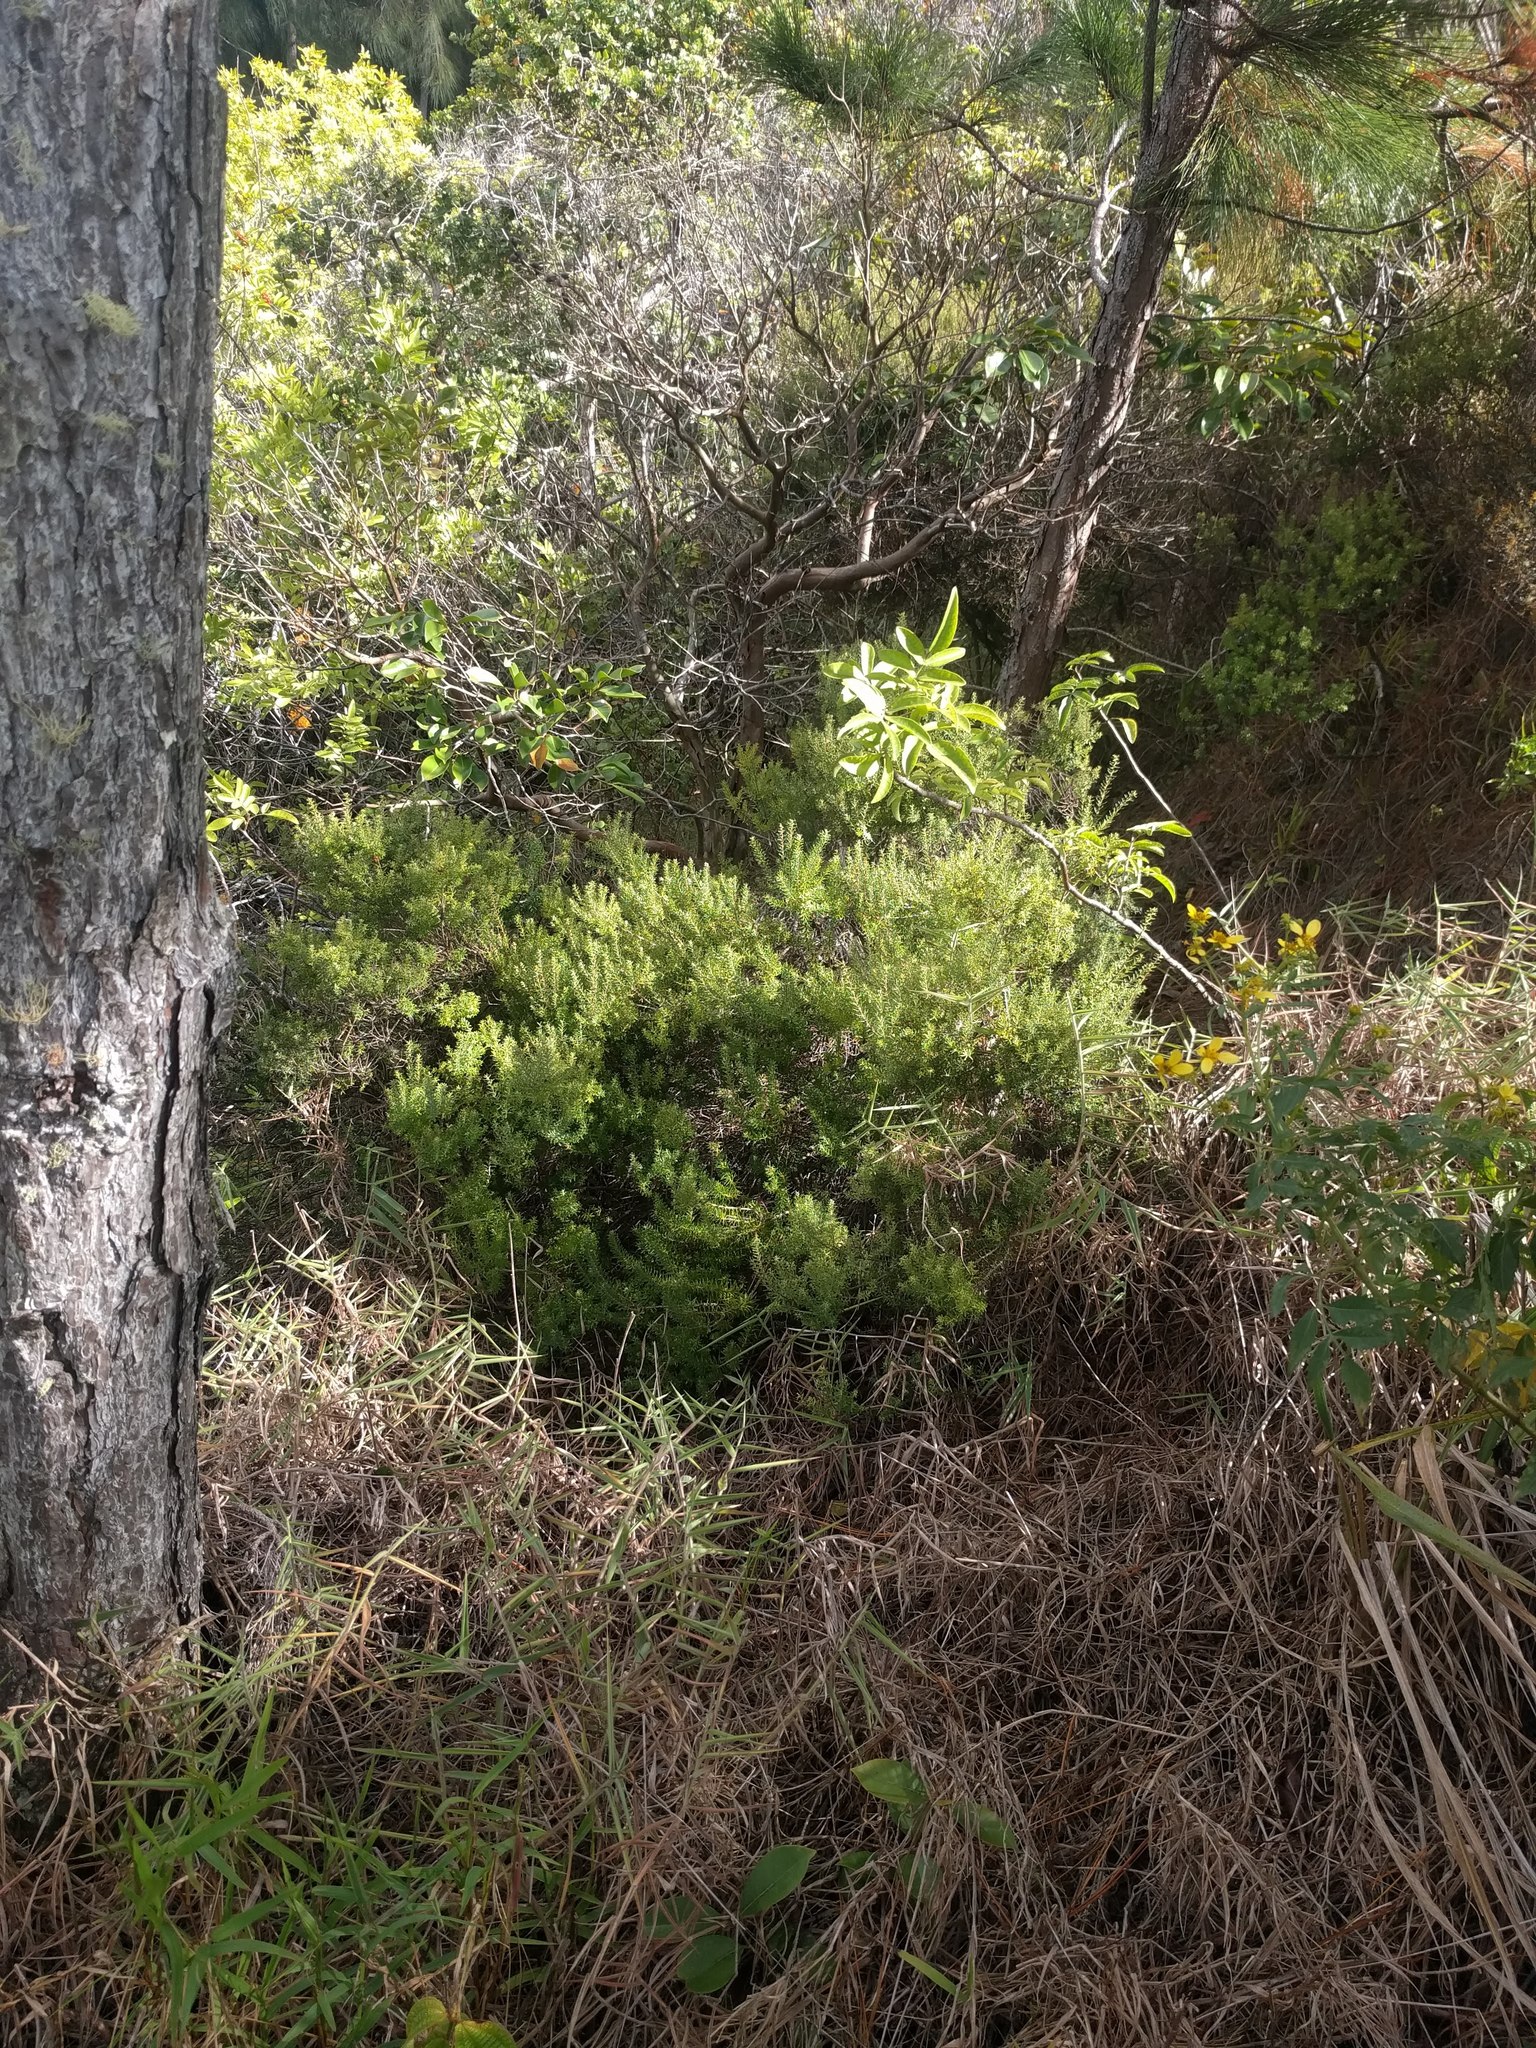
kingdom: Plantae
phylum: Tracheophyta
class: Magnoliopsida
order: Ericales
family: Ericaceae
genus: Leptecophylla
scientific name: Leptecophylla tameiameiae
